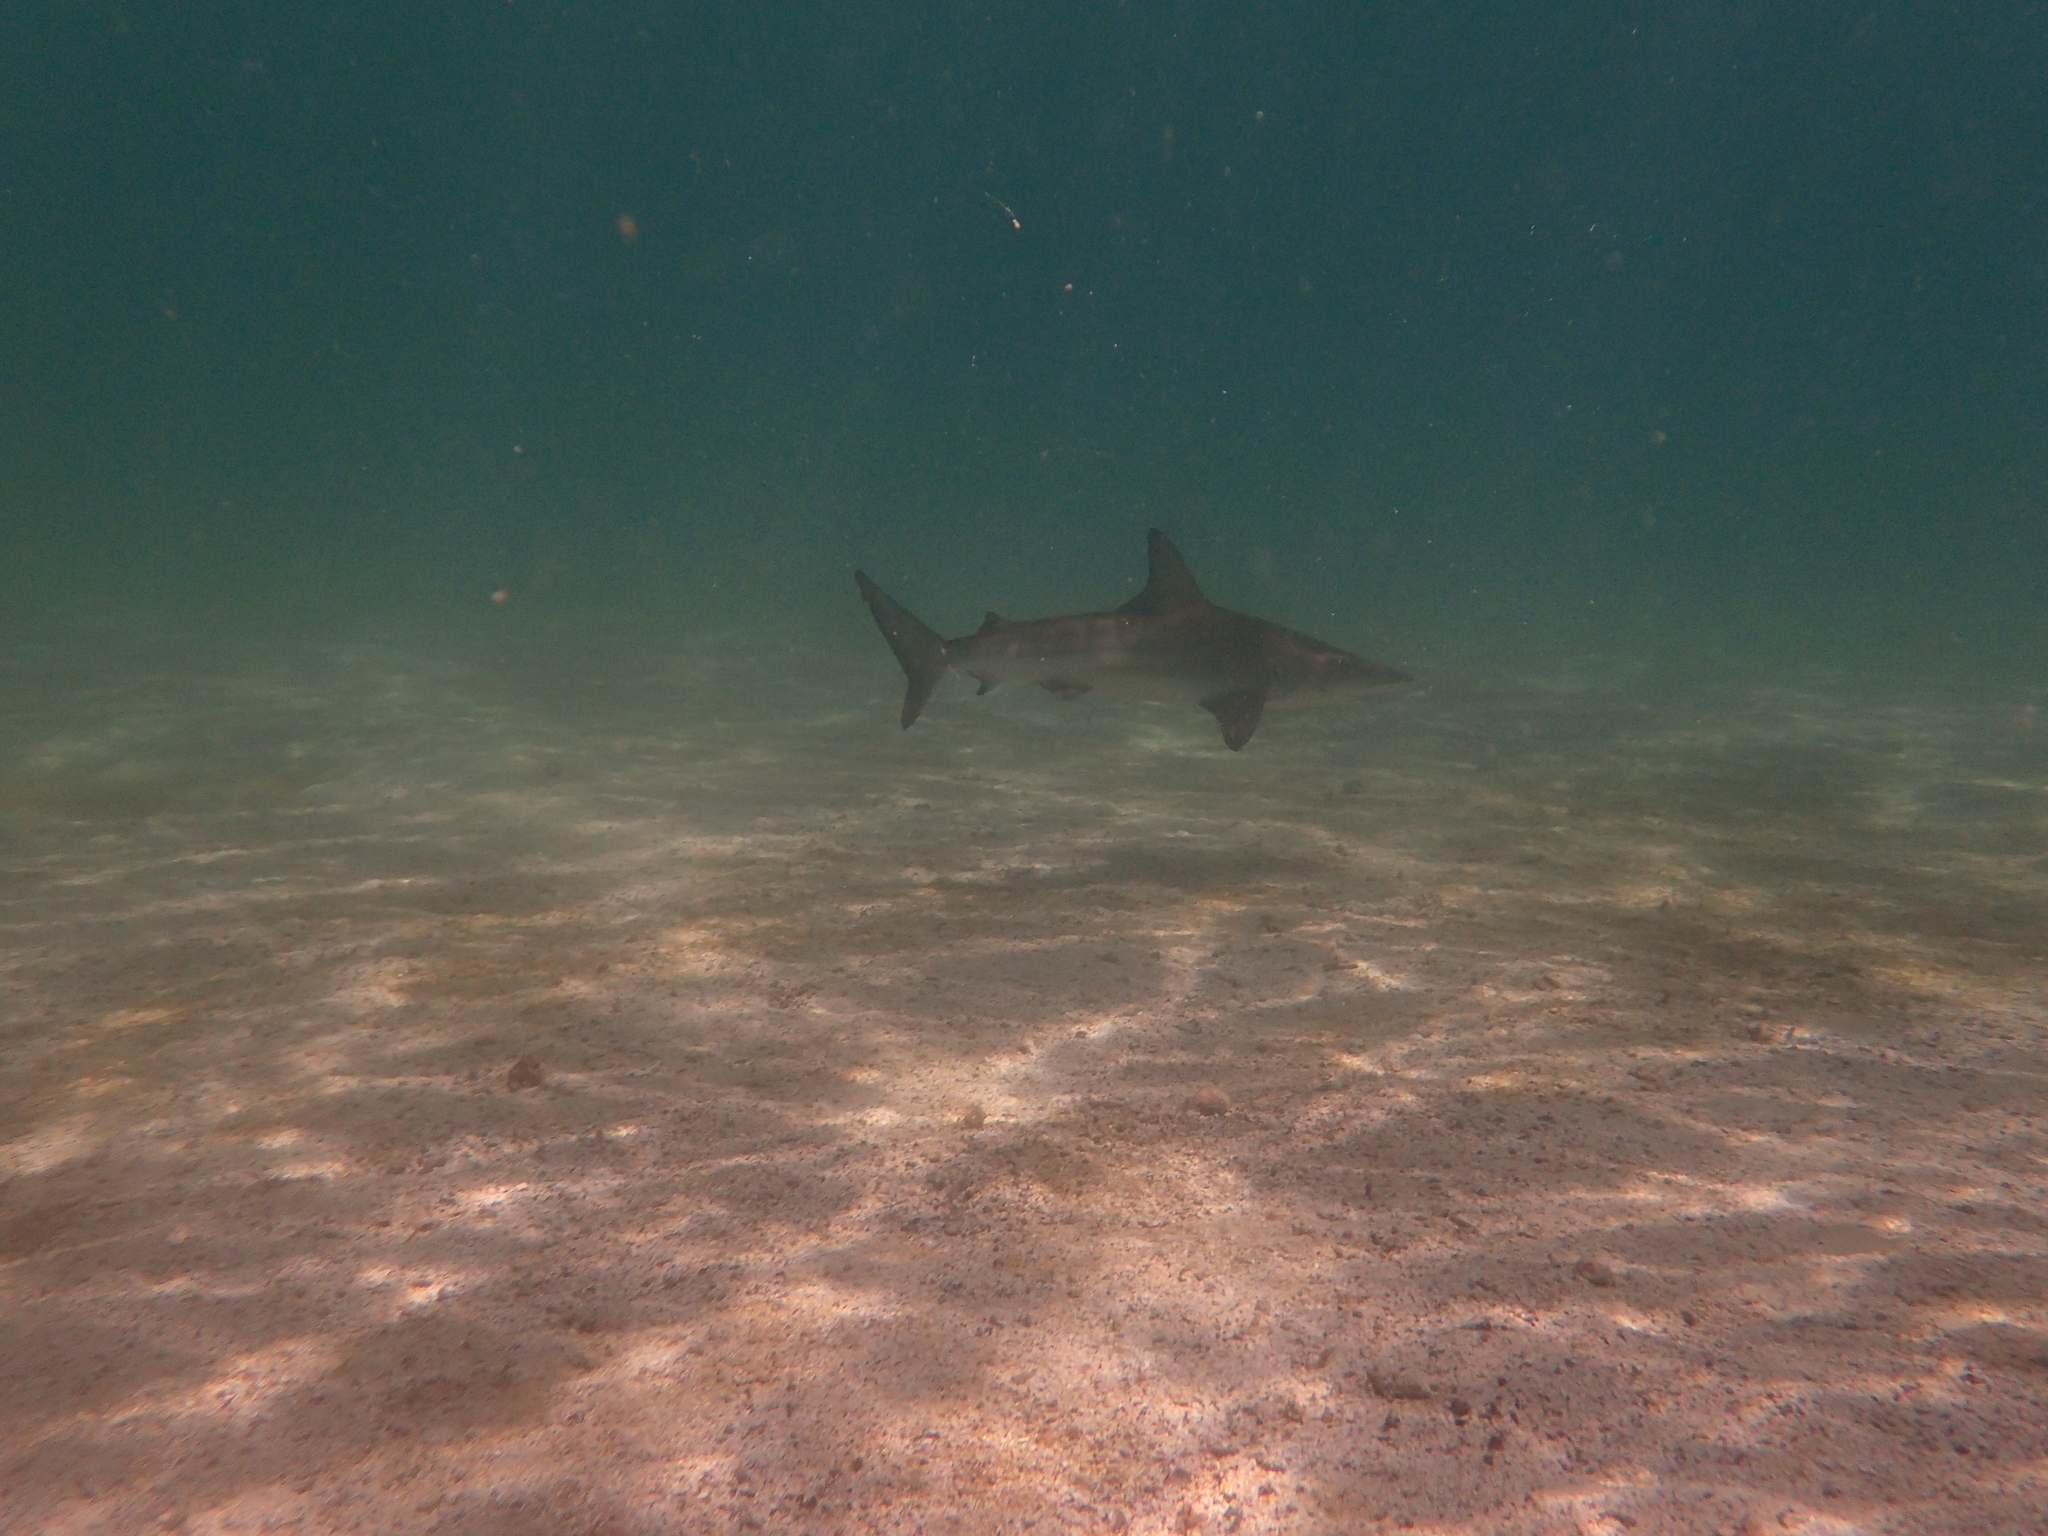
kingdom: Animalia
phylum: Chordata
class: Elasmobranchii
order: Carcharhiniformes
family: Carcharhinidae
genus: Carcharhinus
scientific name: Carcharhinus limbatus
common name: Blacktip shark
